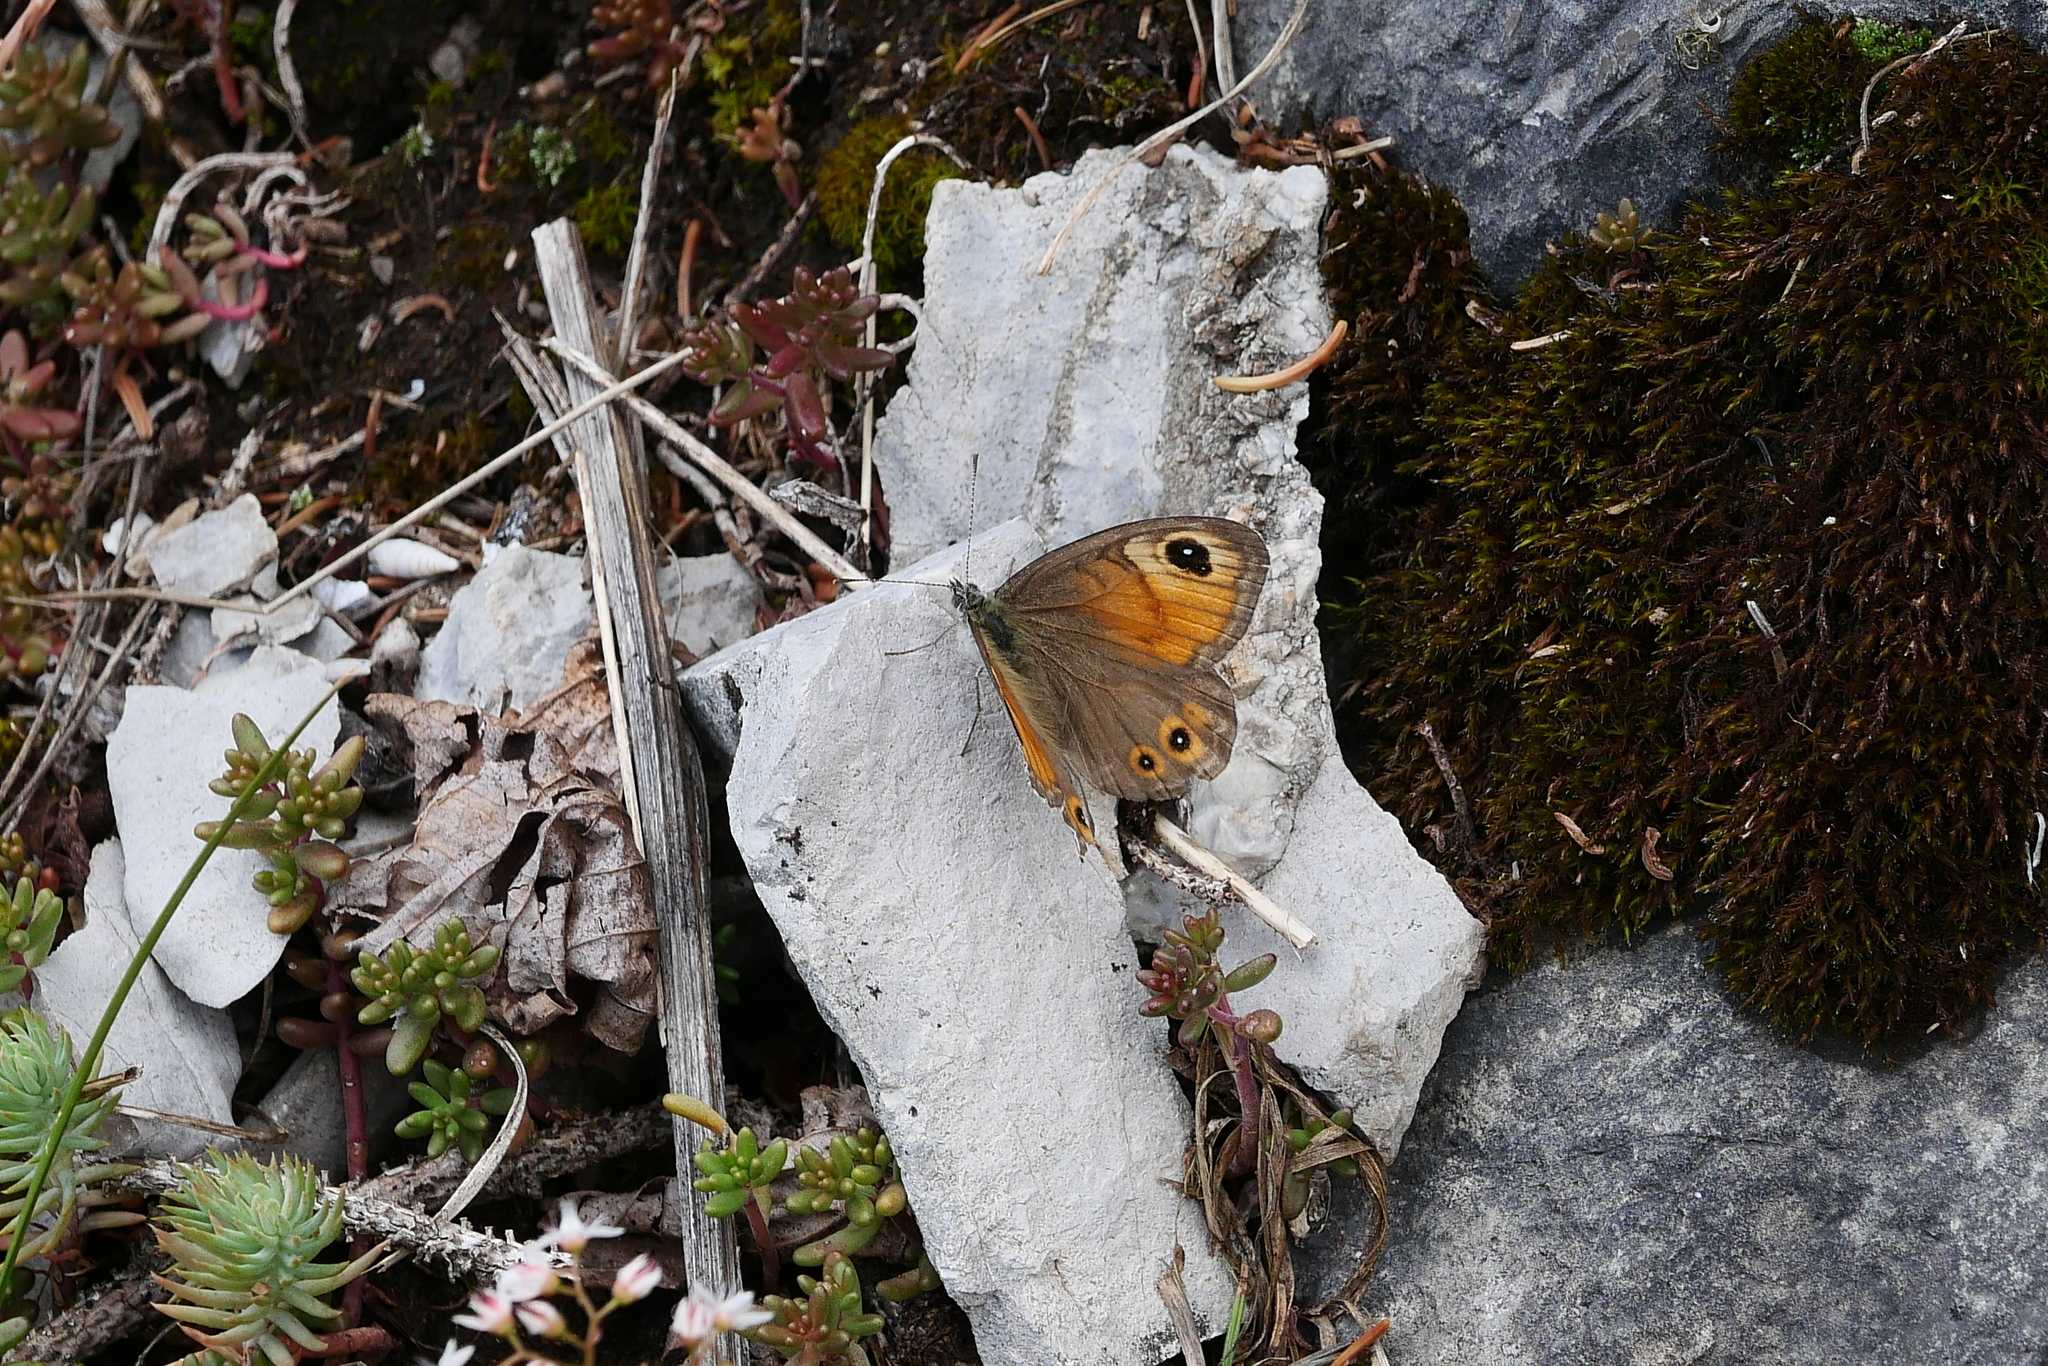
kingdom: Animalia
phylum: Arthropoda
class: Insecta
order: Lepidoptera
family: Nymphalidae
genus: Pararge
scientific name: Pararge Lasiommata maera
